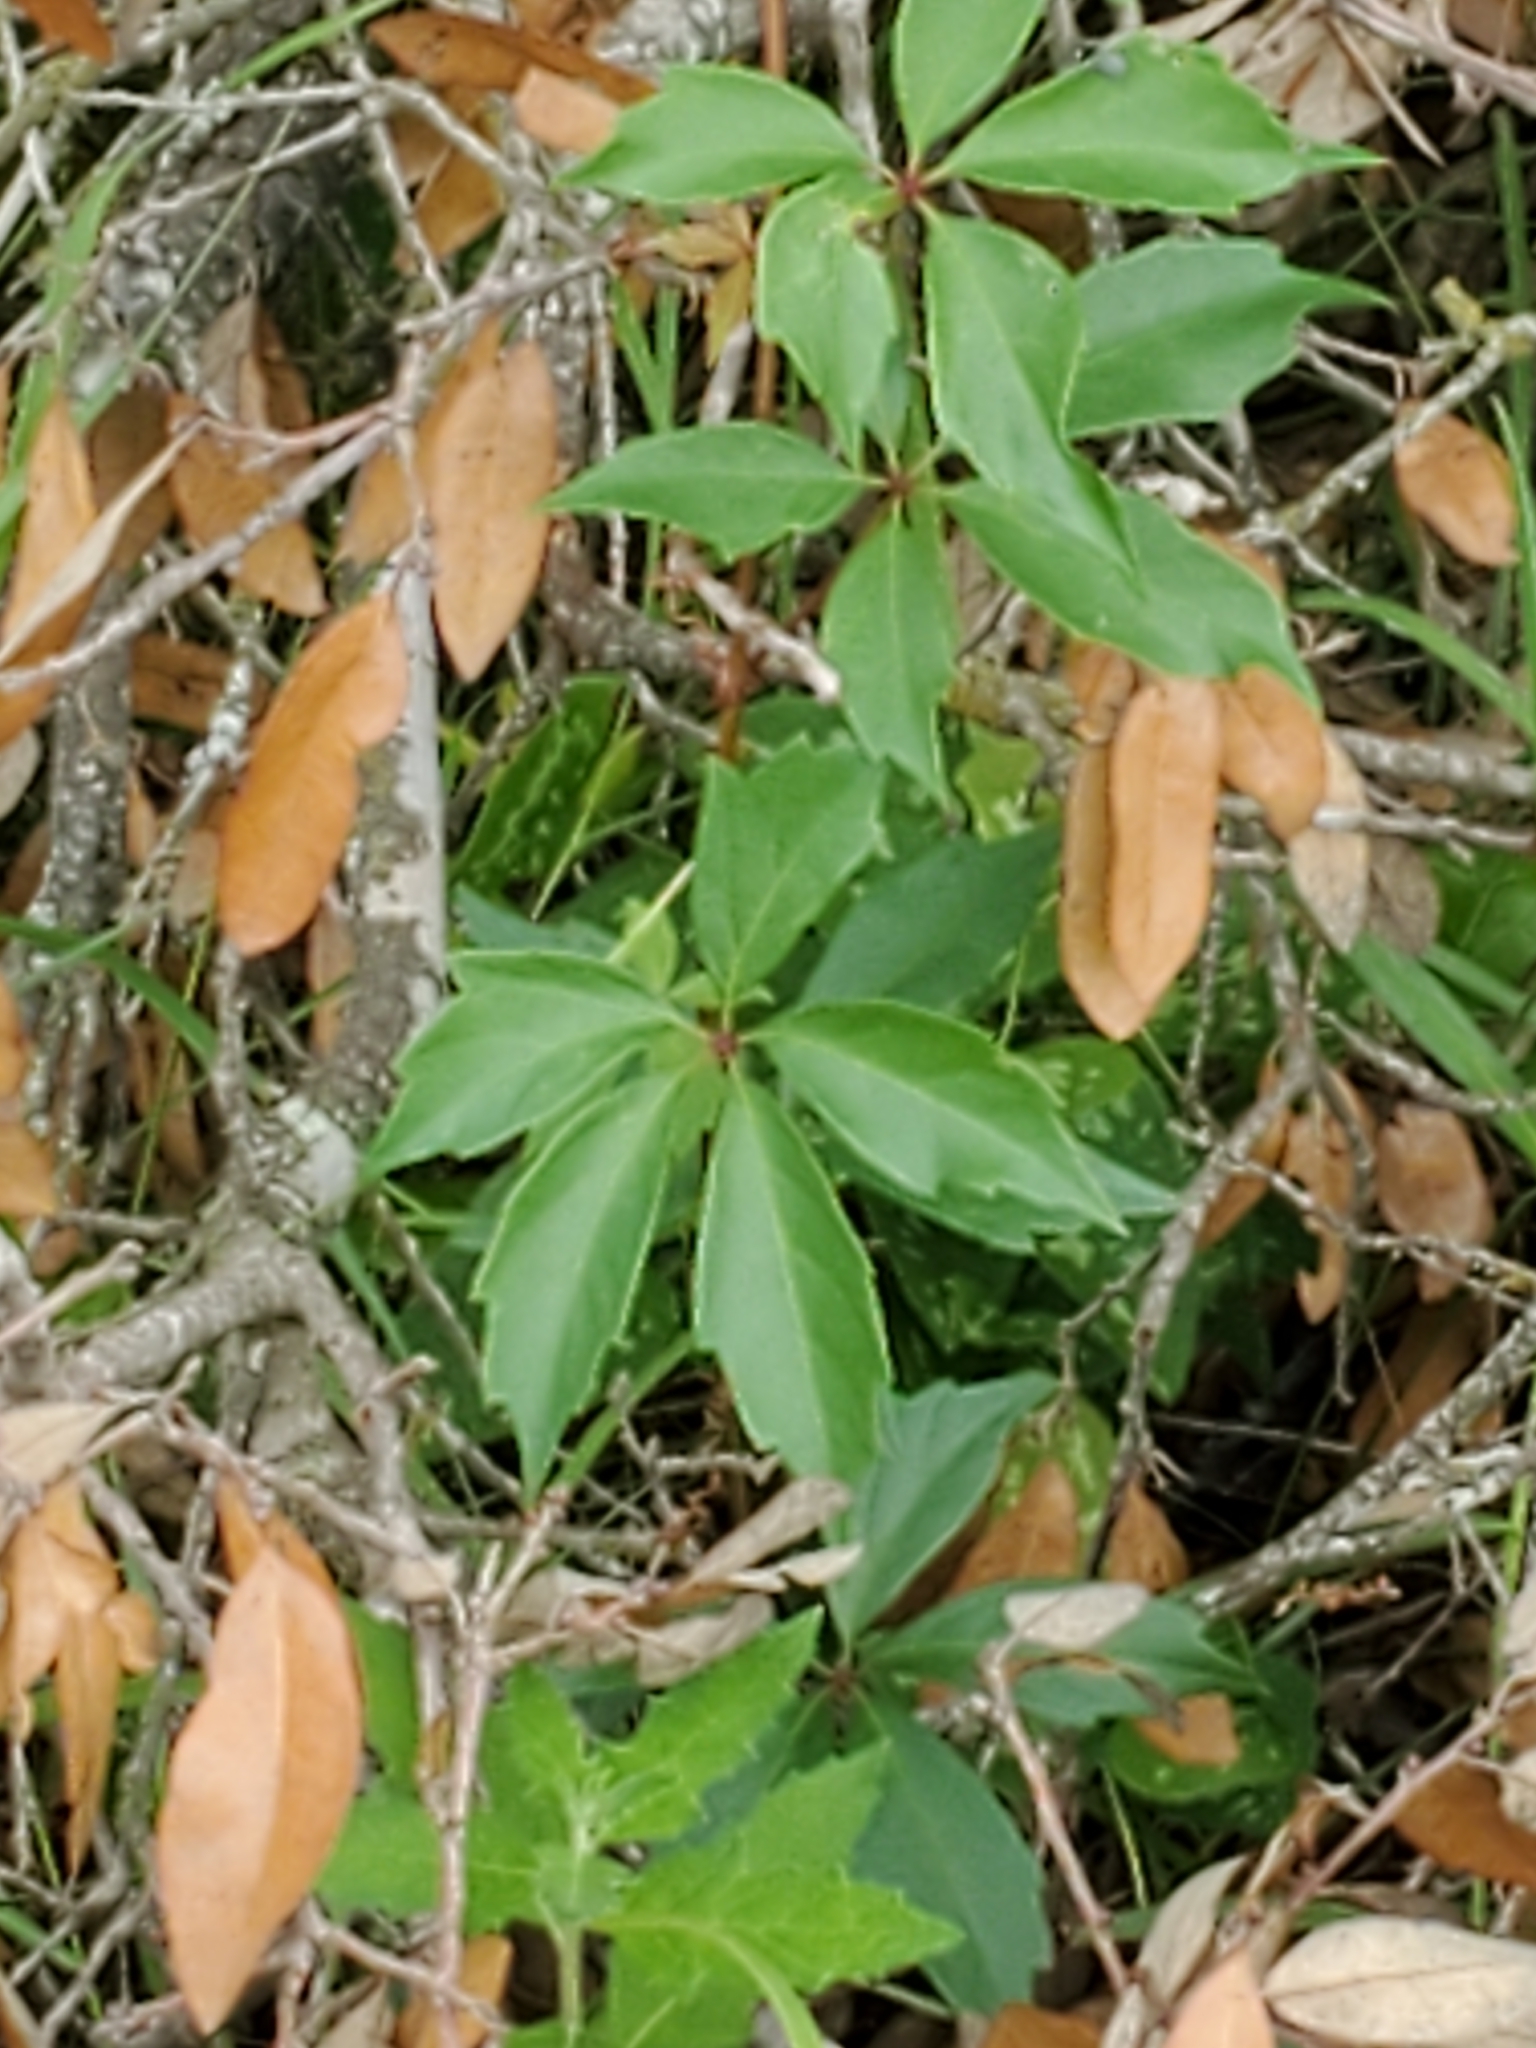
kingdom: Plantae
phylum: Tracheophyta
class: Magnoliopsida
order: Vitales
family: Vitaceae
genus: Parthenocissus
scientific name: Parthenocissus quinquefolia
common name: Virginia-creeper
